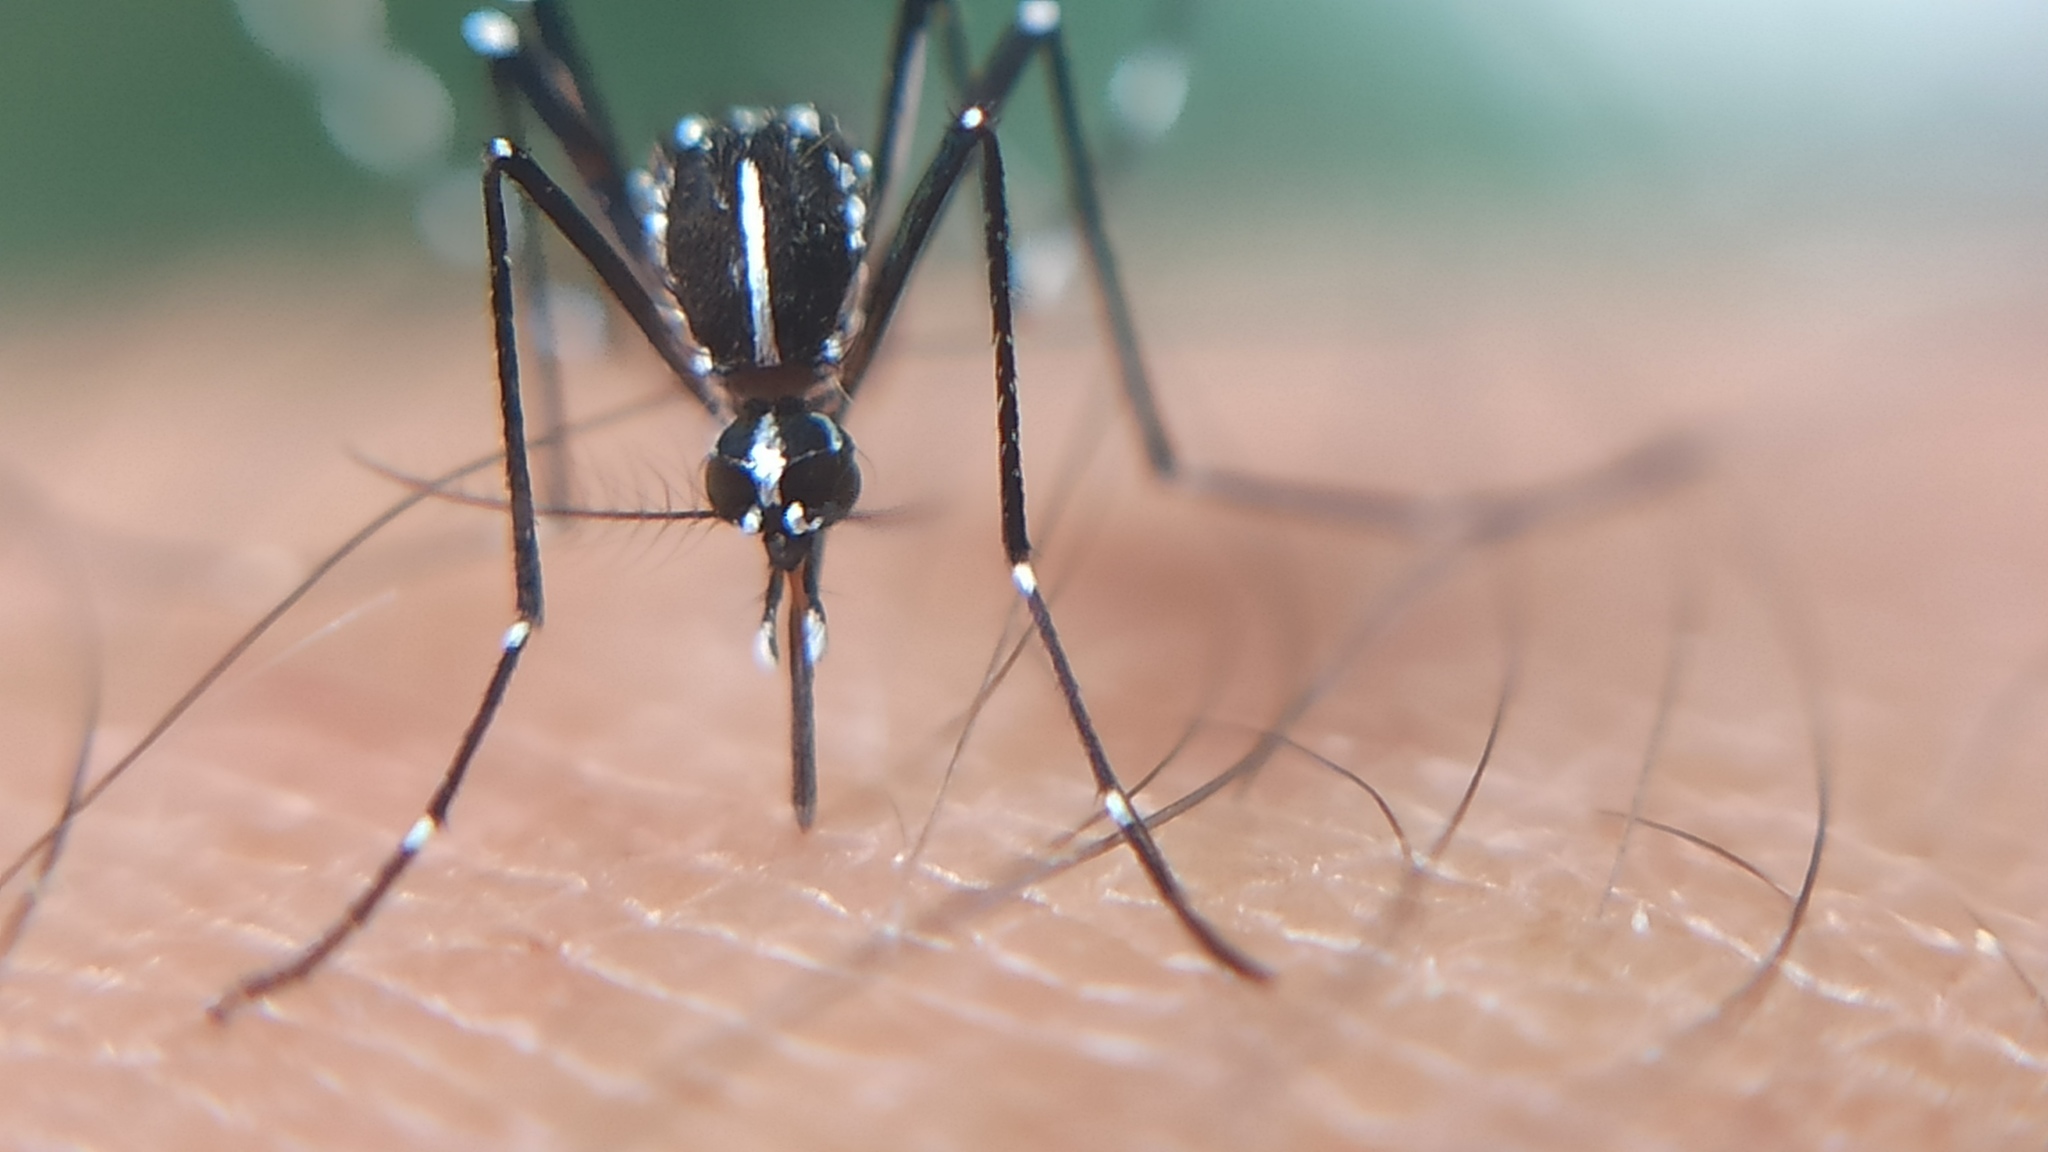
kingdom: Animalia
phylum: Arthropoda
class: Insecta
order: Diptera
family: Culicidae
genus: Aedes
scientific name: Aedes albopictus
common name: Tiger mosquito
